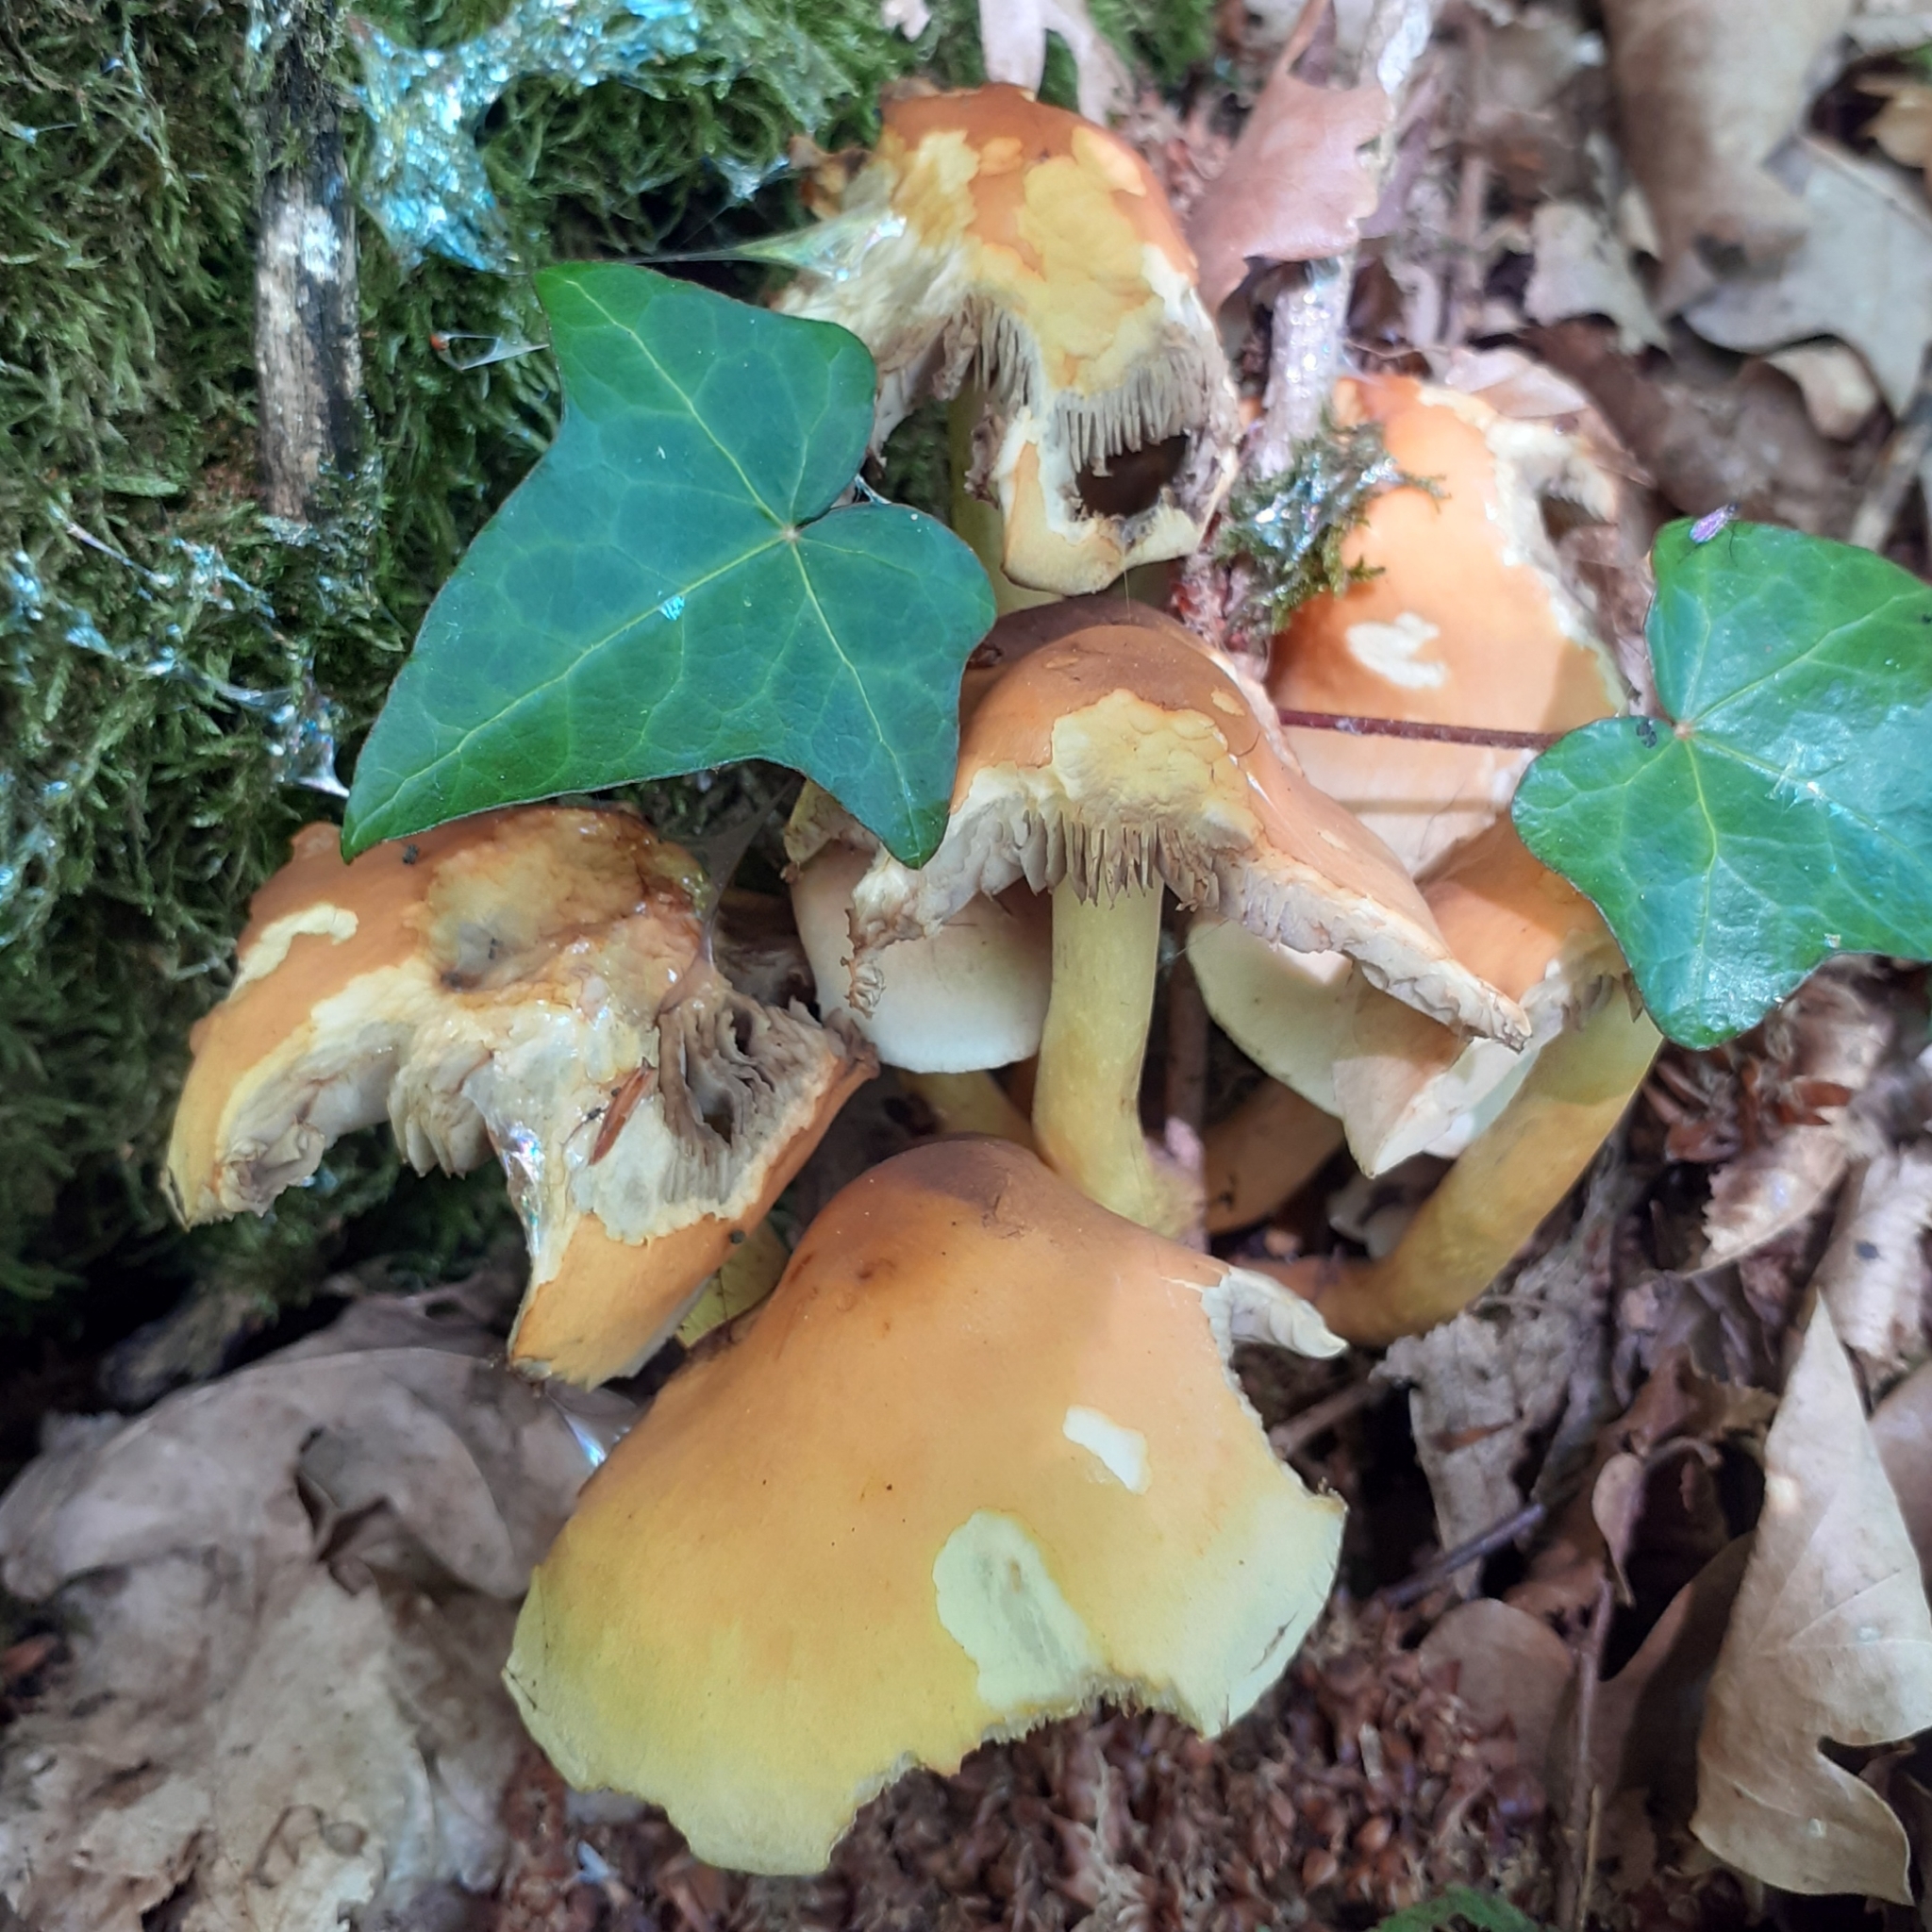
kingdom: Fungi
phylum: Basidiomycota
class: Agaricomycetes
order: Agaricales
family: Strophariaceae
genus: Hypholoma
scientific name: Hypholoma fasciculare
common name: Sulphur tuft
